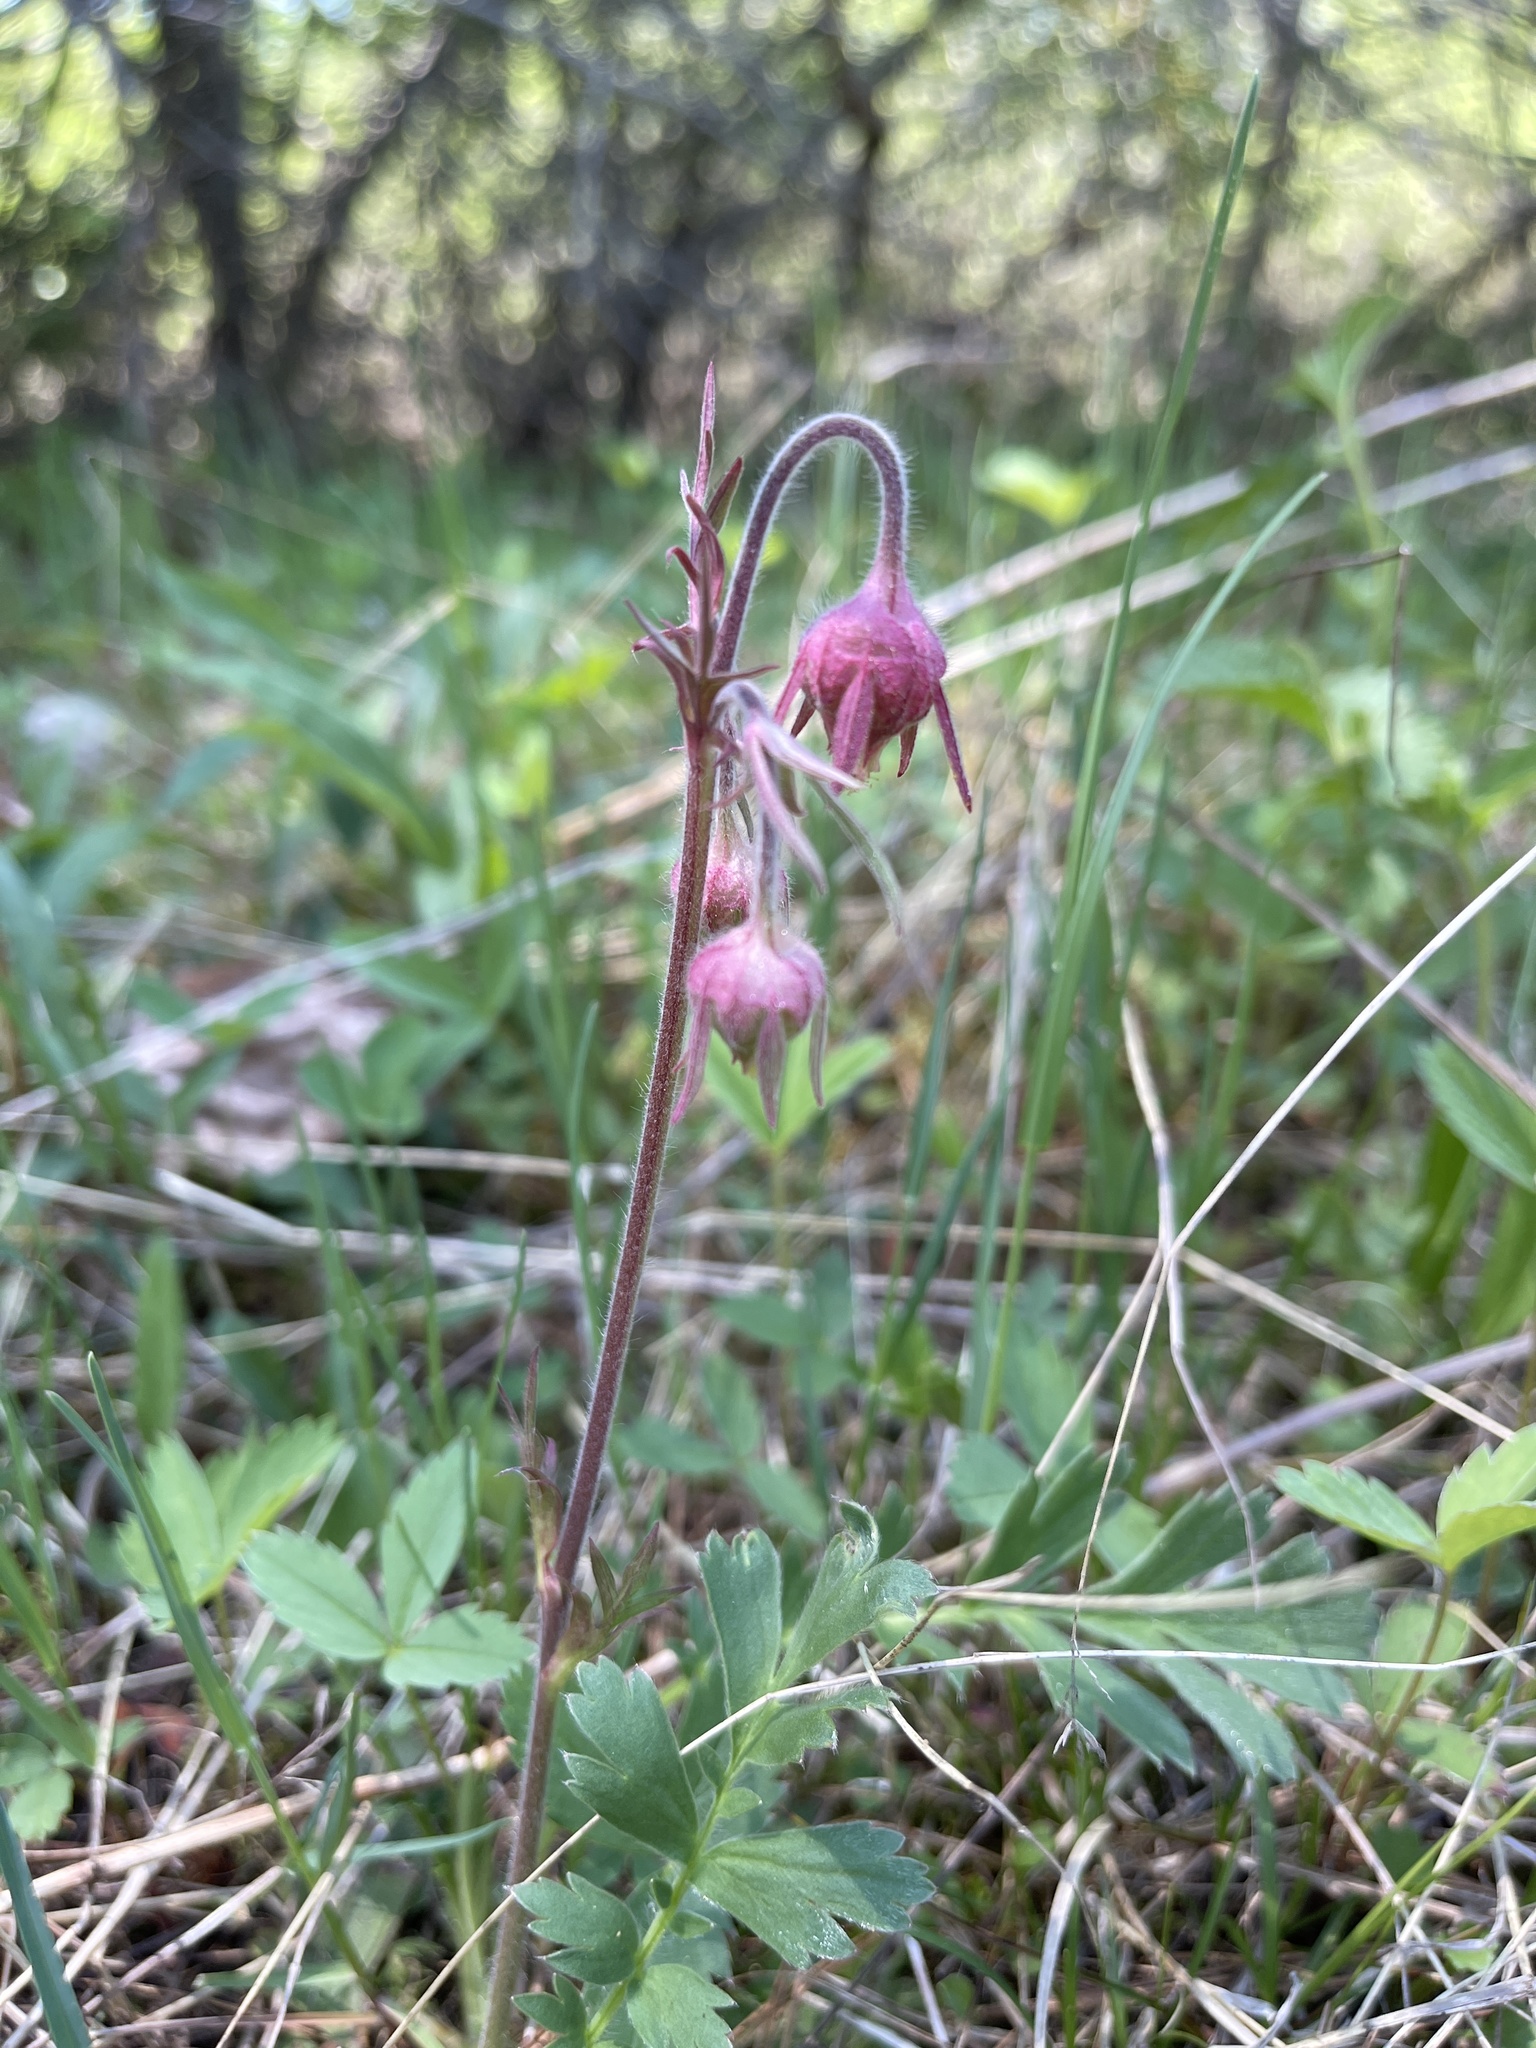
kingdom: Plantae
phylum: Tracheophyta
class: Magnoliopsida
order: Rosales
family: Rosaceae
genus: Geum
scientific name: Geum triflorum
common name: Old man's whiskers
